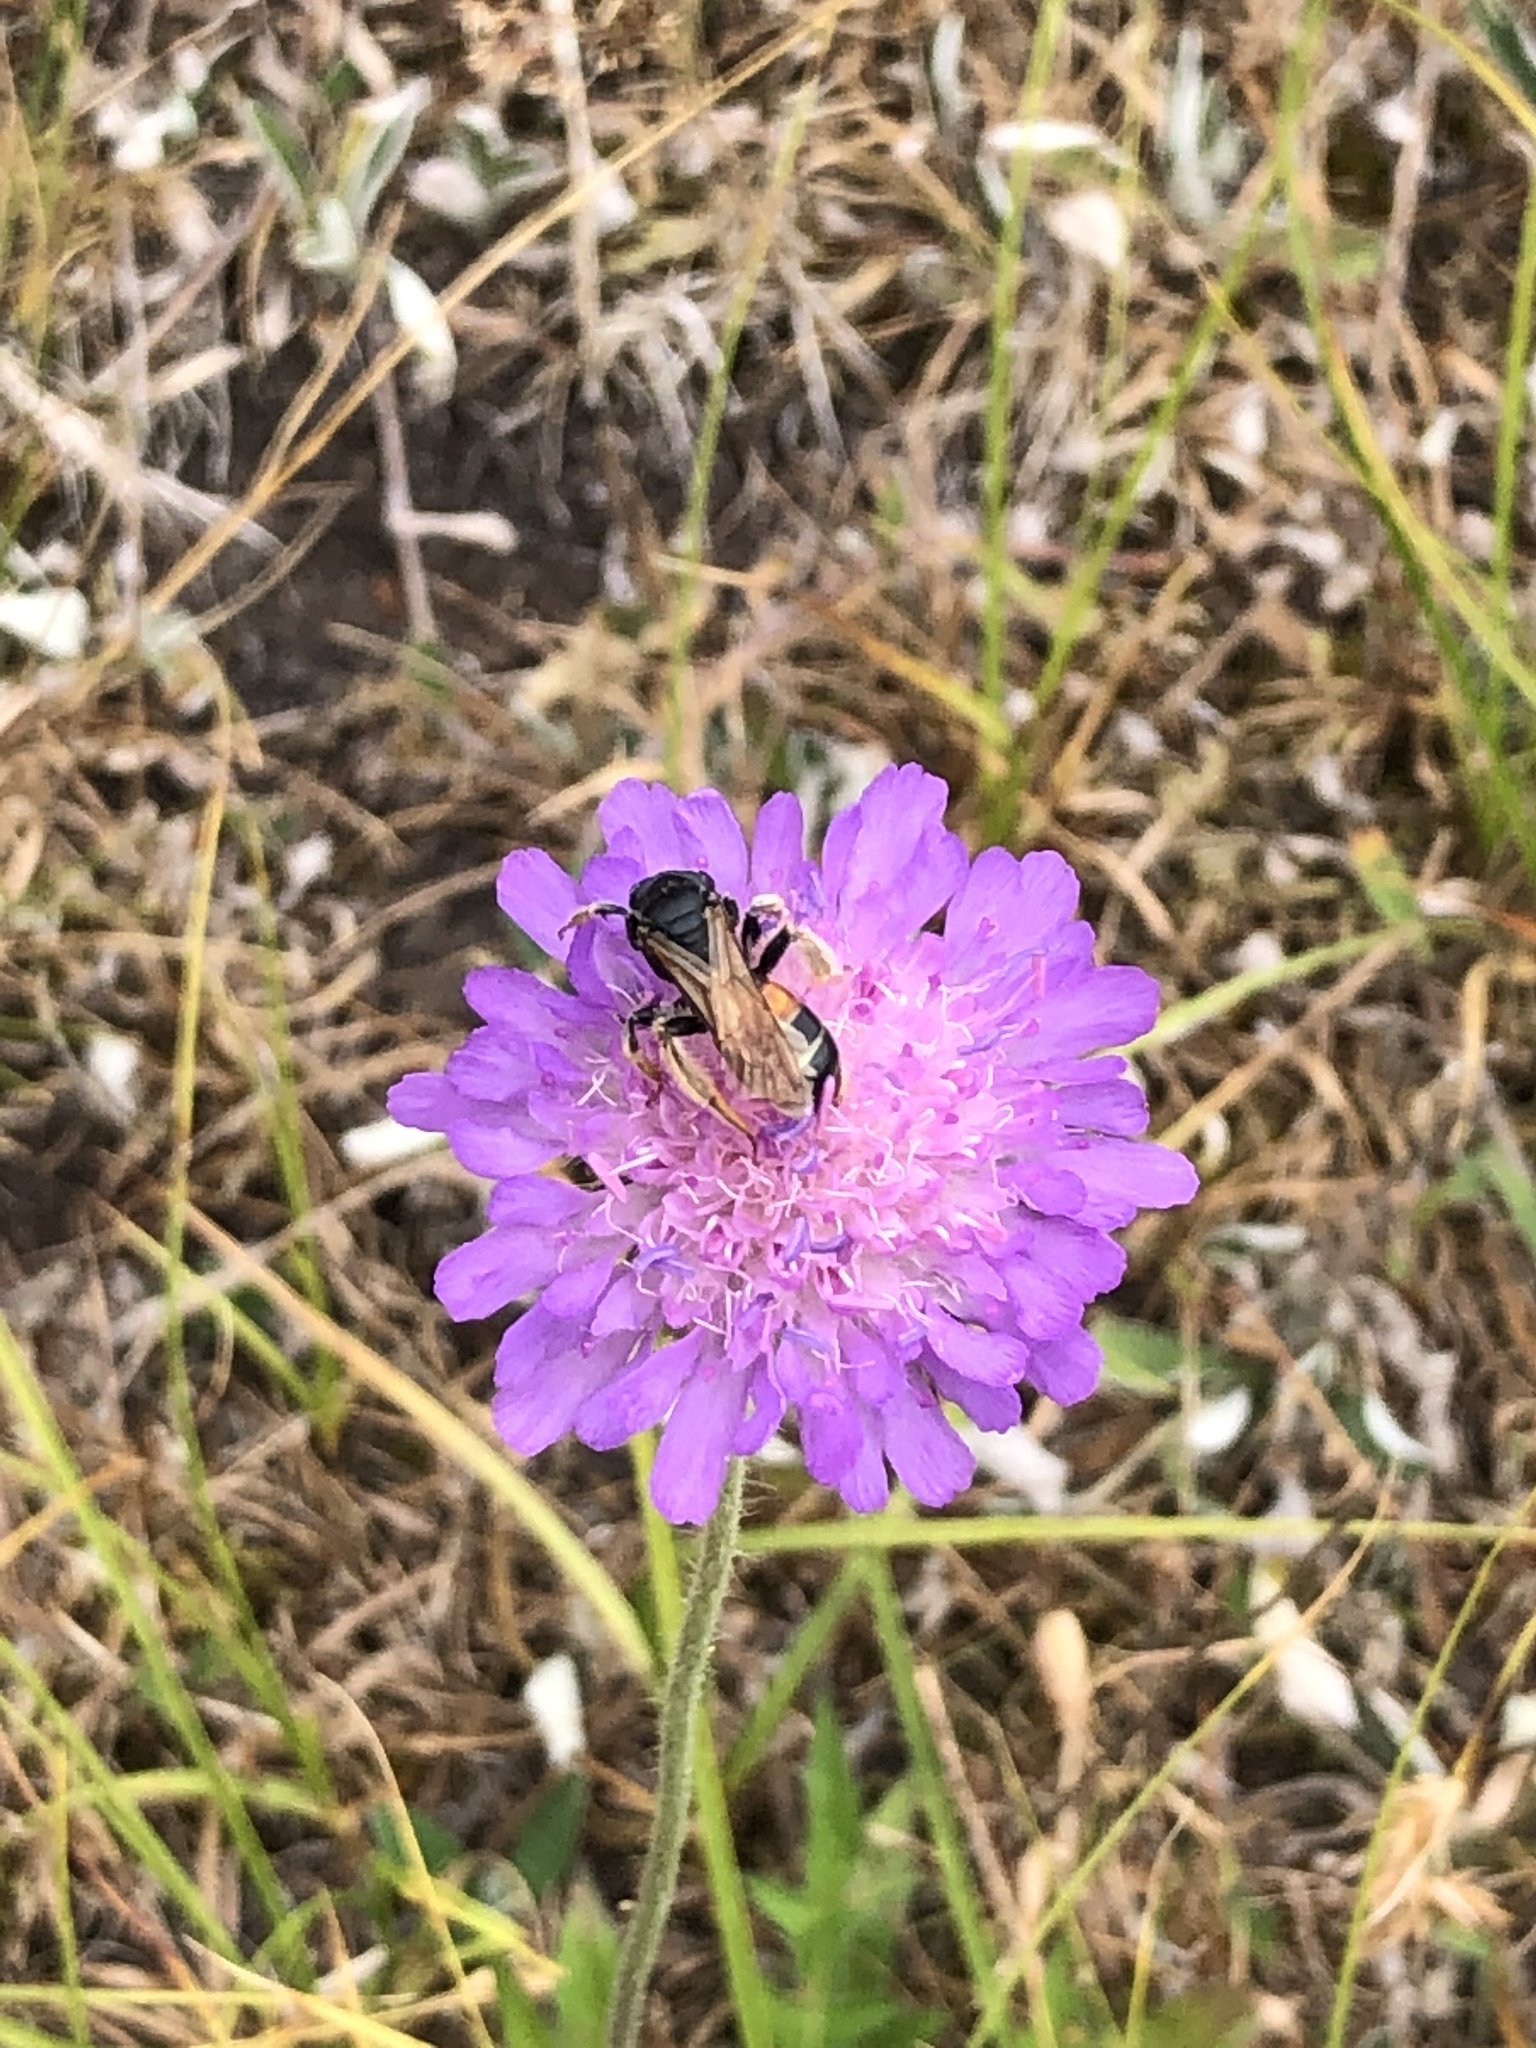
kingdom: Animalia
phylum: Arthropoda
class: Insecta
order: Hymenoptera
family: Andrenidae
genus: Andrena
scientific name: Andrena hattorfiana
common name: Large scabious mining bee
